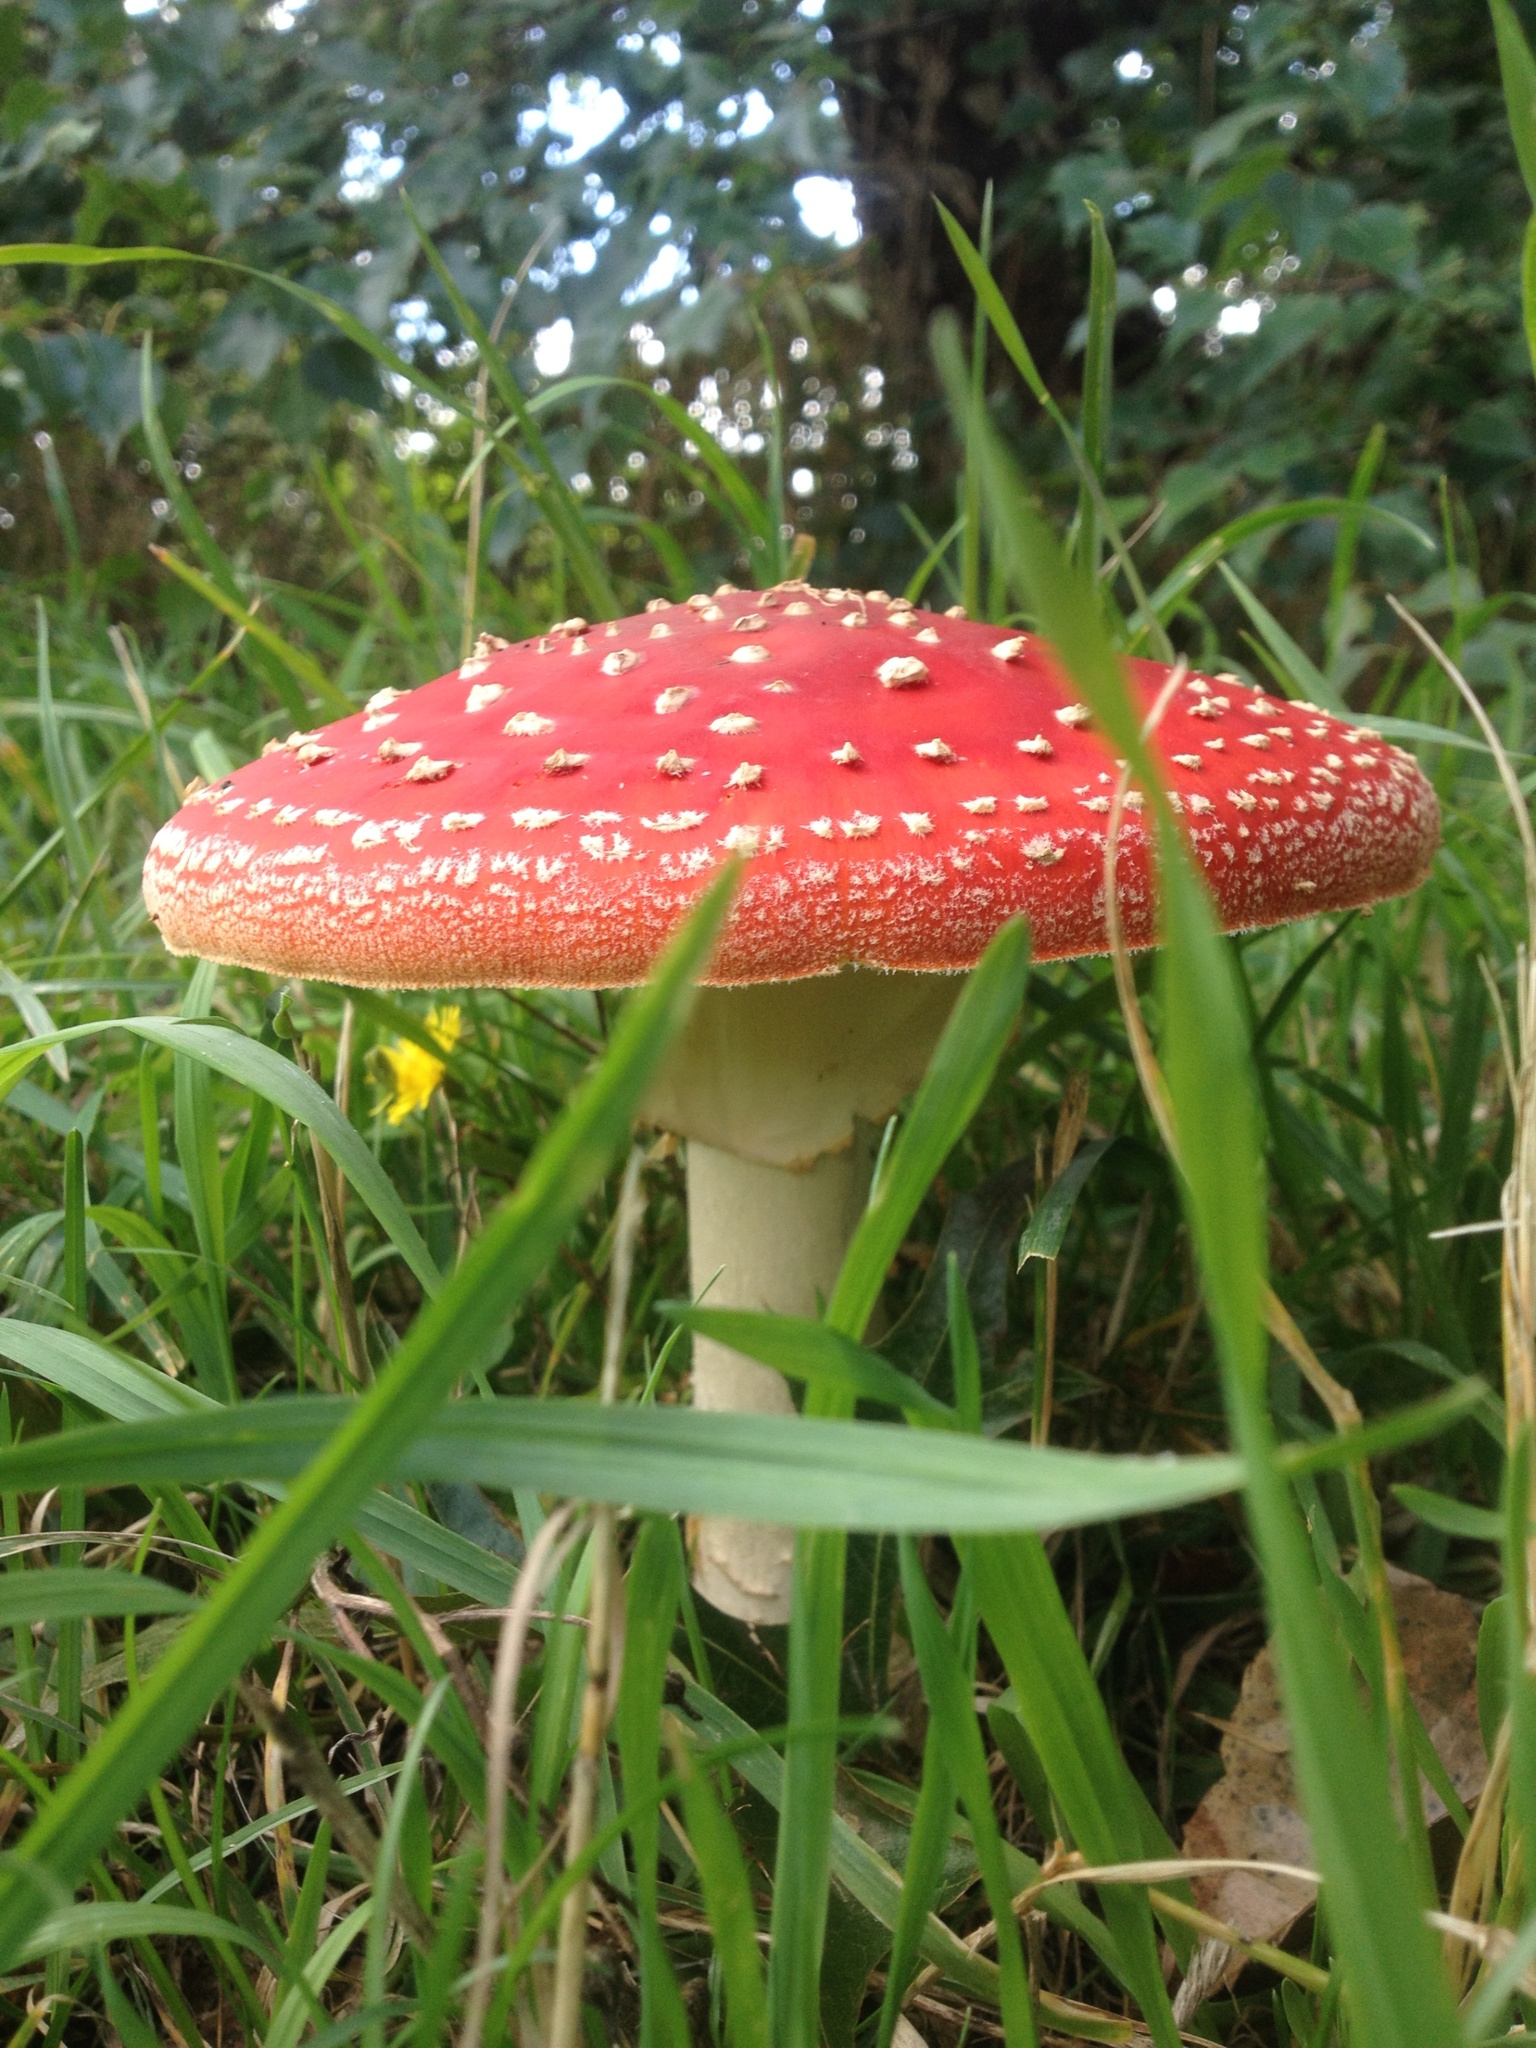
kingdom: Fungi
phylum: Basidiomycota
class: Agaricomycetes
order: Agaricales
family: Amanitaceae
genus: Amanita
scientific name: Amanita muscaria
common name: Fly agaric
